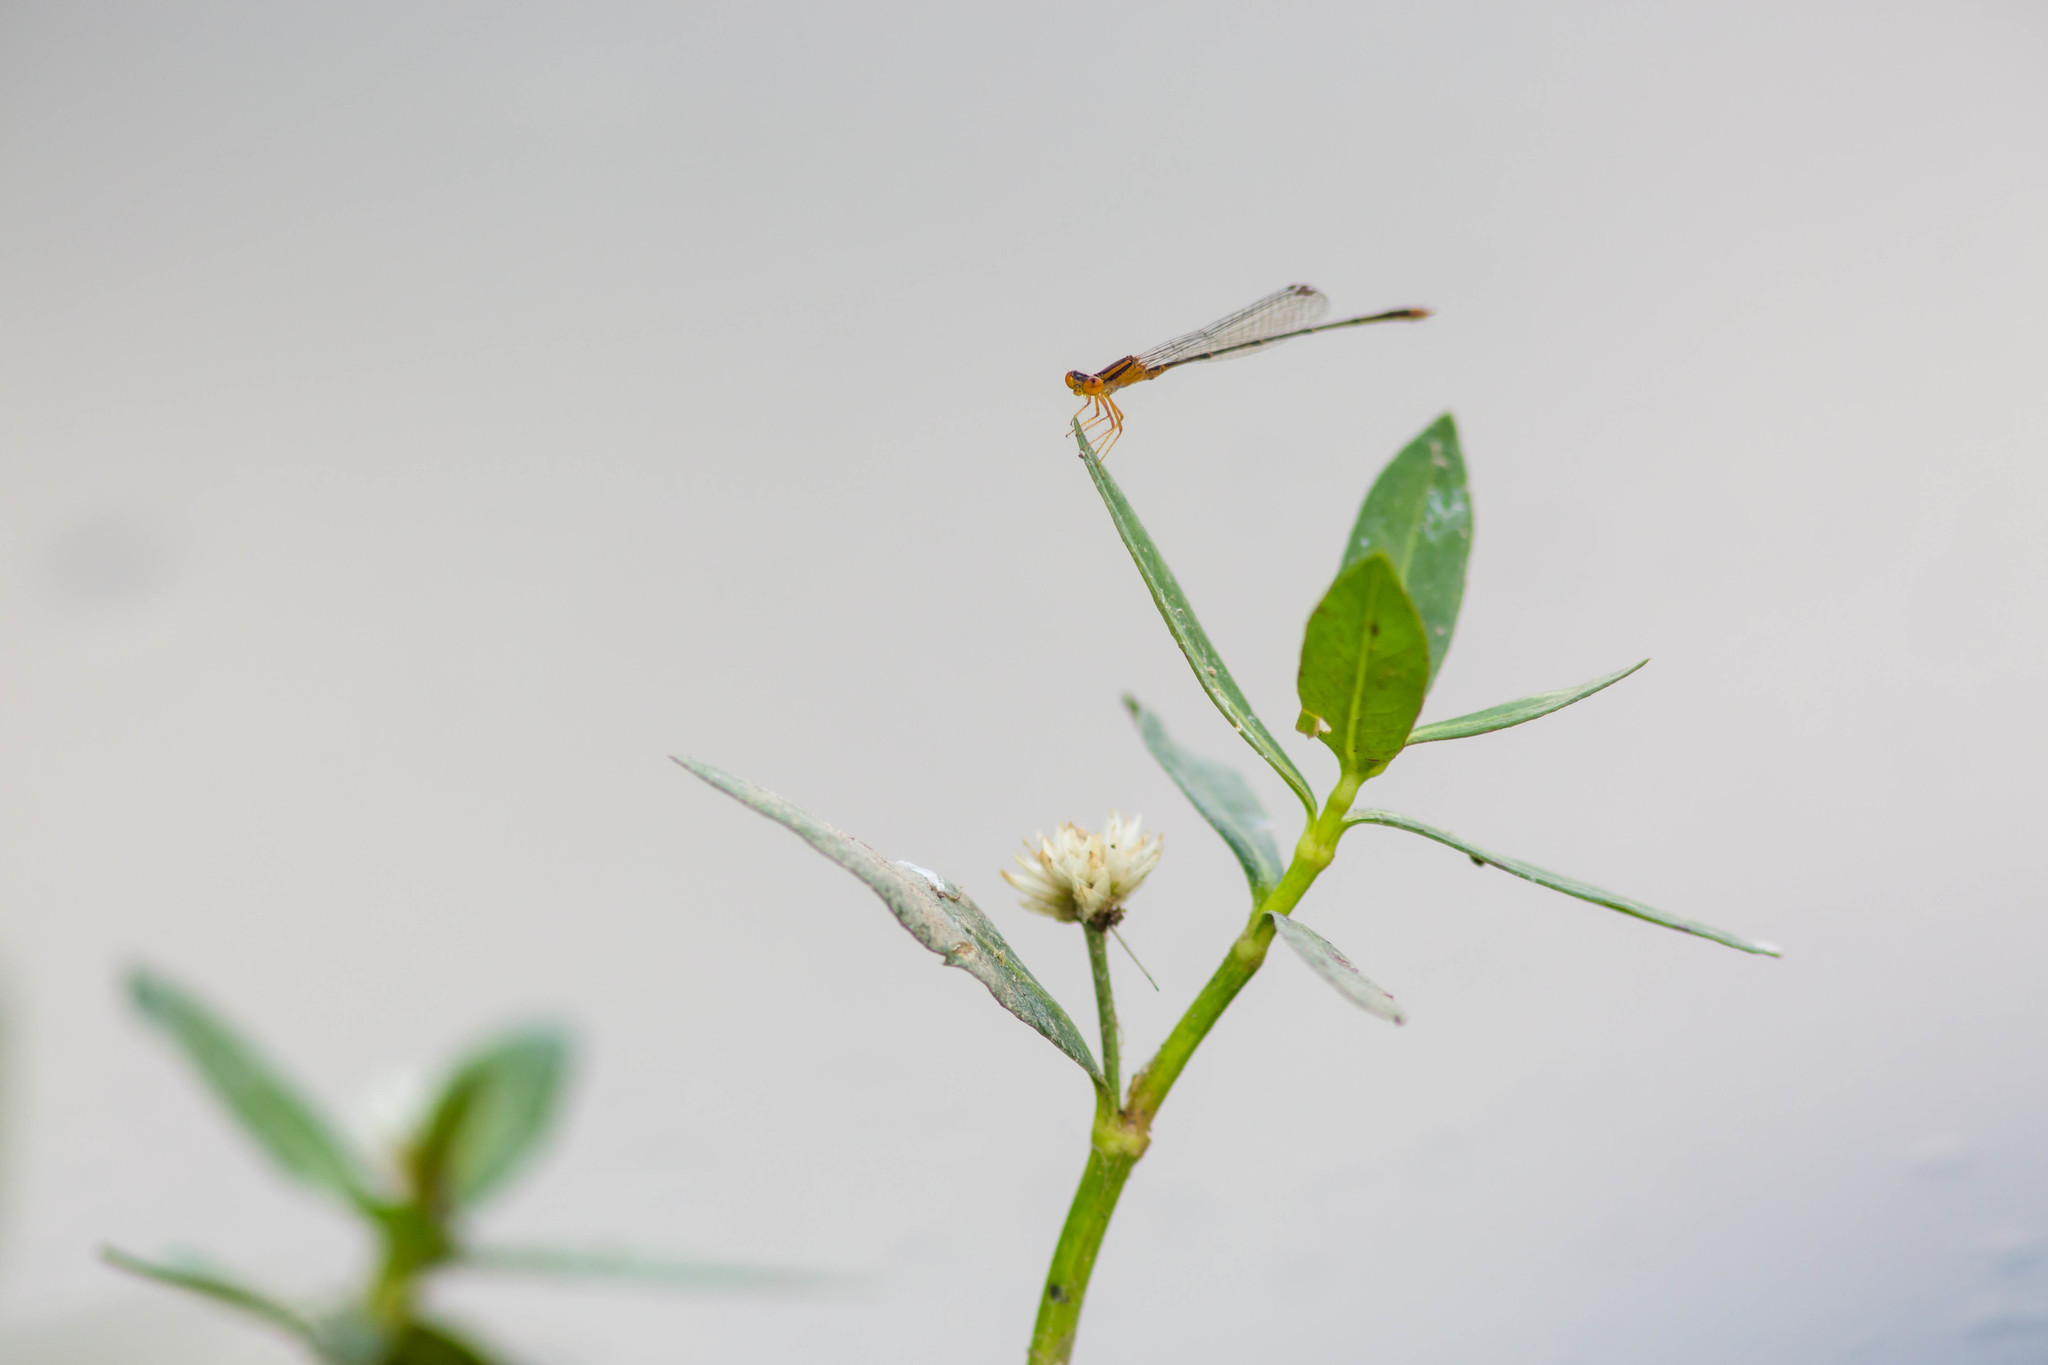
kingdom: Animalia
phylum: Arthropoda
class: Insecta
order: Odonata
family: Coenagrionidae
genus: Enallagma
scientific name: Enallagma signatum
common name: Orange bluet
